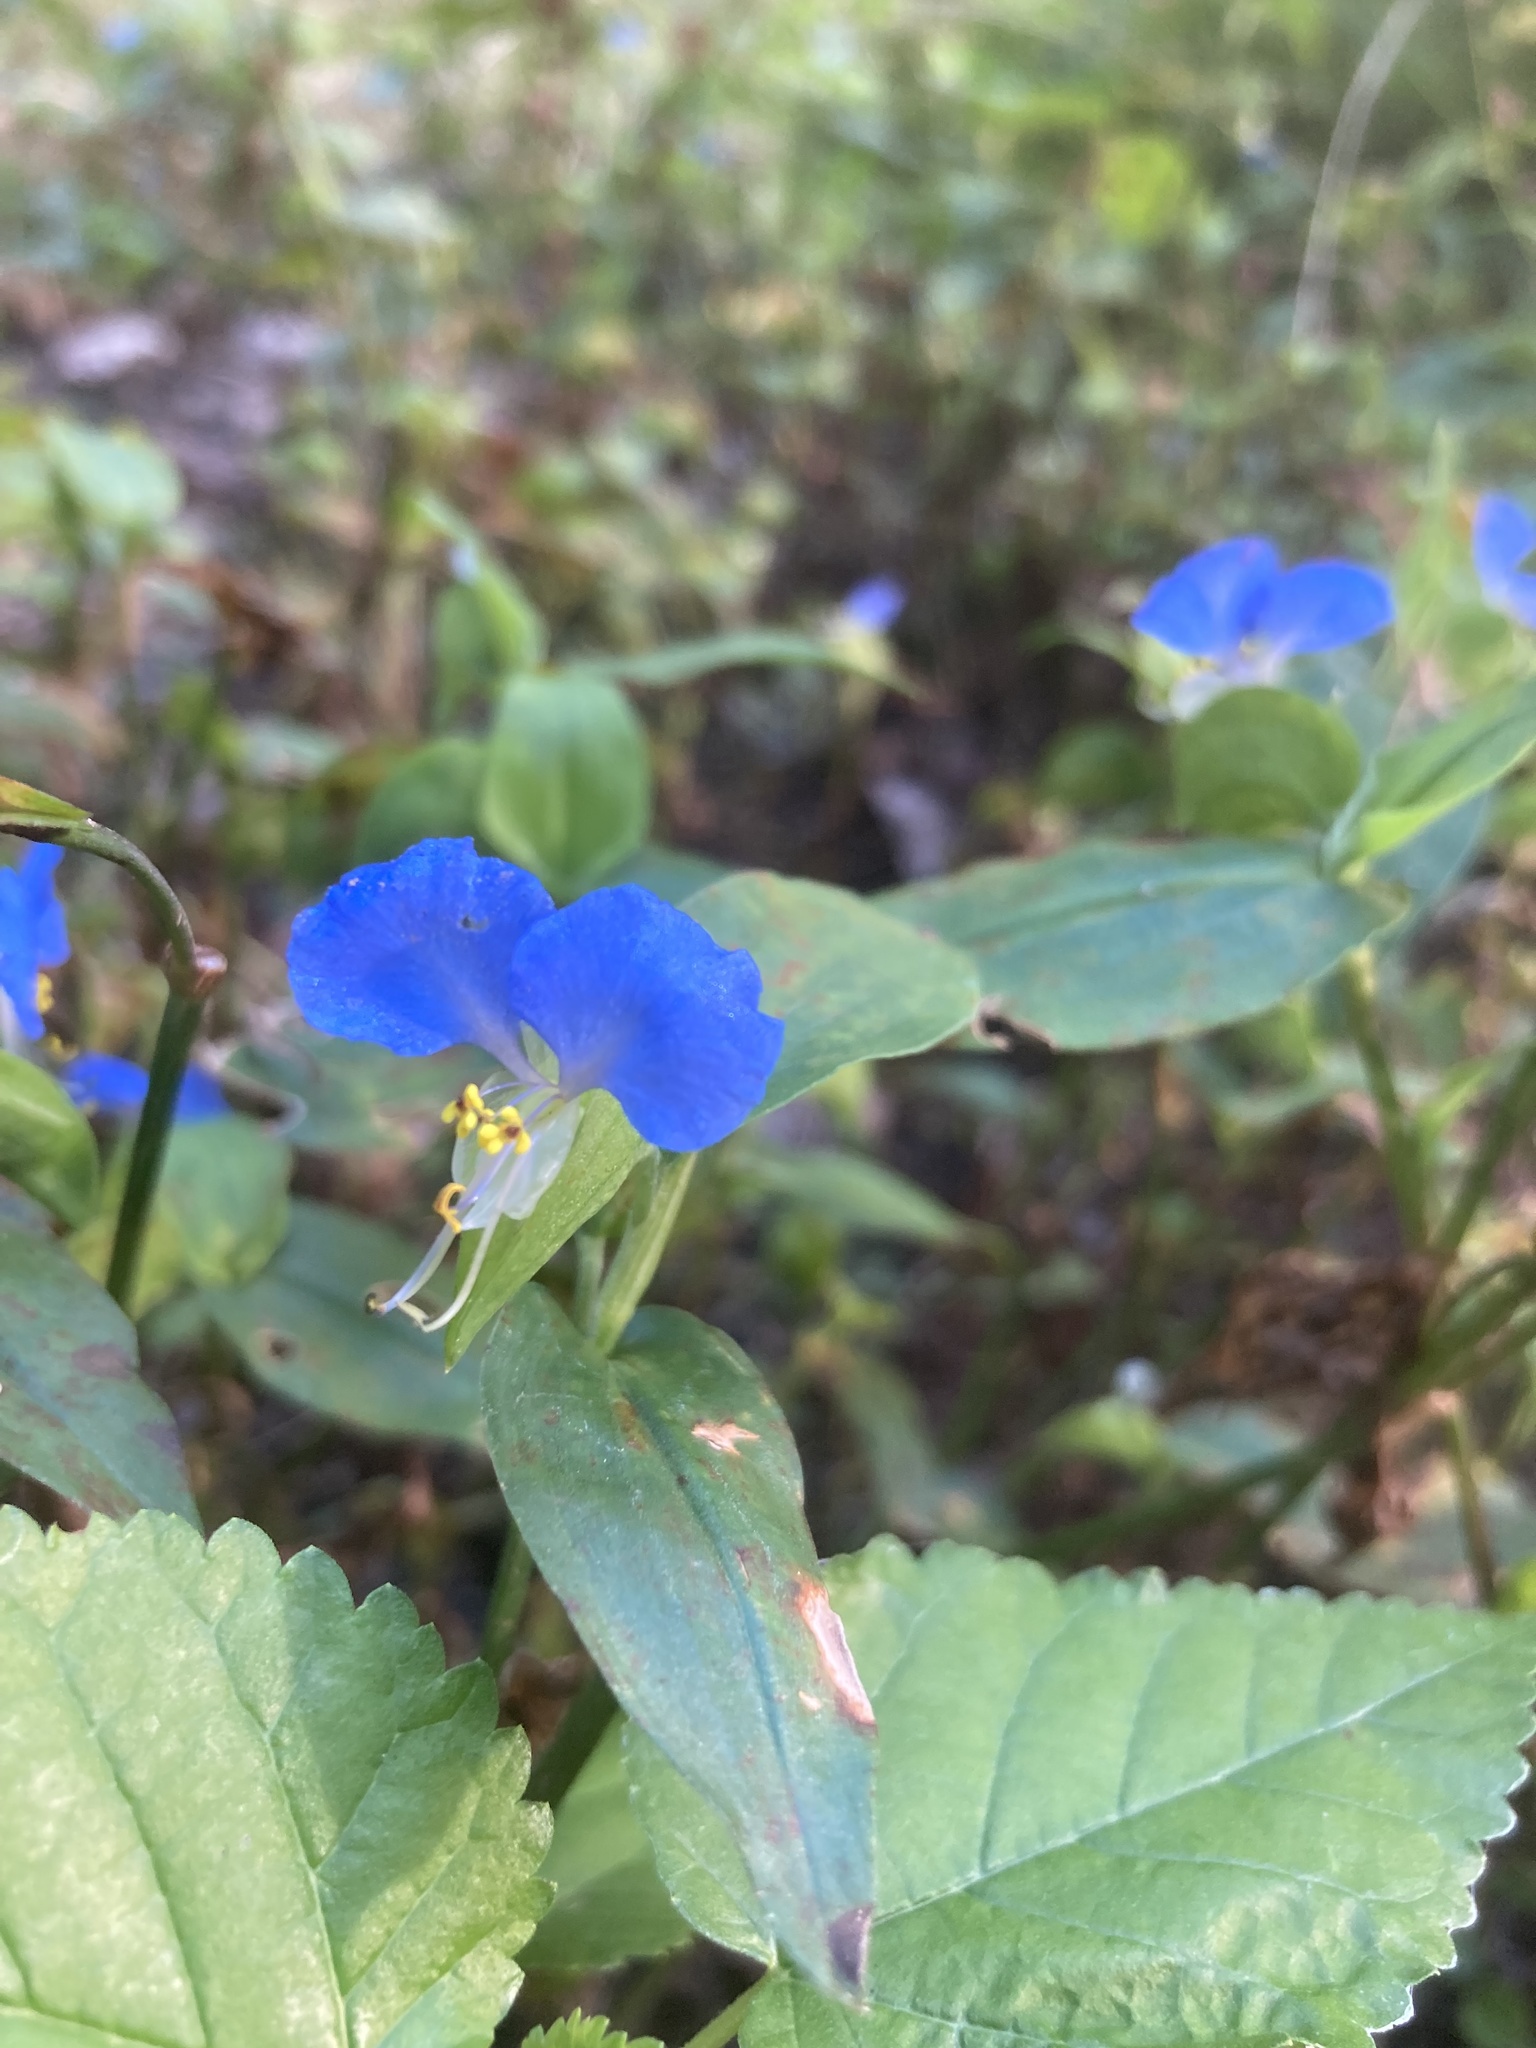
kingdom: Plantae
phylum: Tracheophyta
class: Liliopsida
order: Commelinales
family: Commelinaceae
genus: Commelina
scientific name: Commelina communis
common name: Asiatic dayflower
